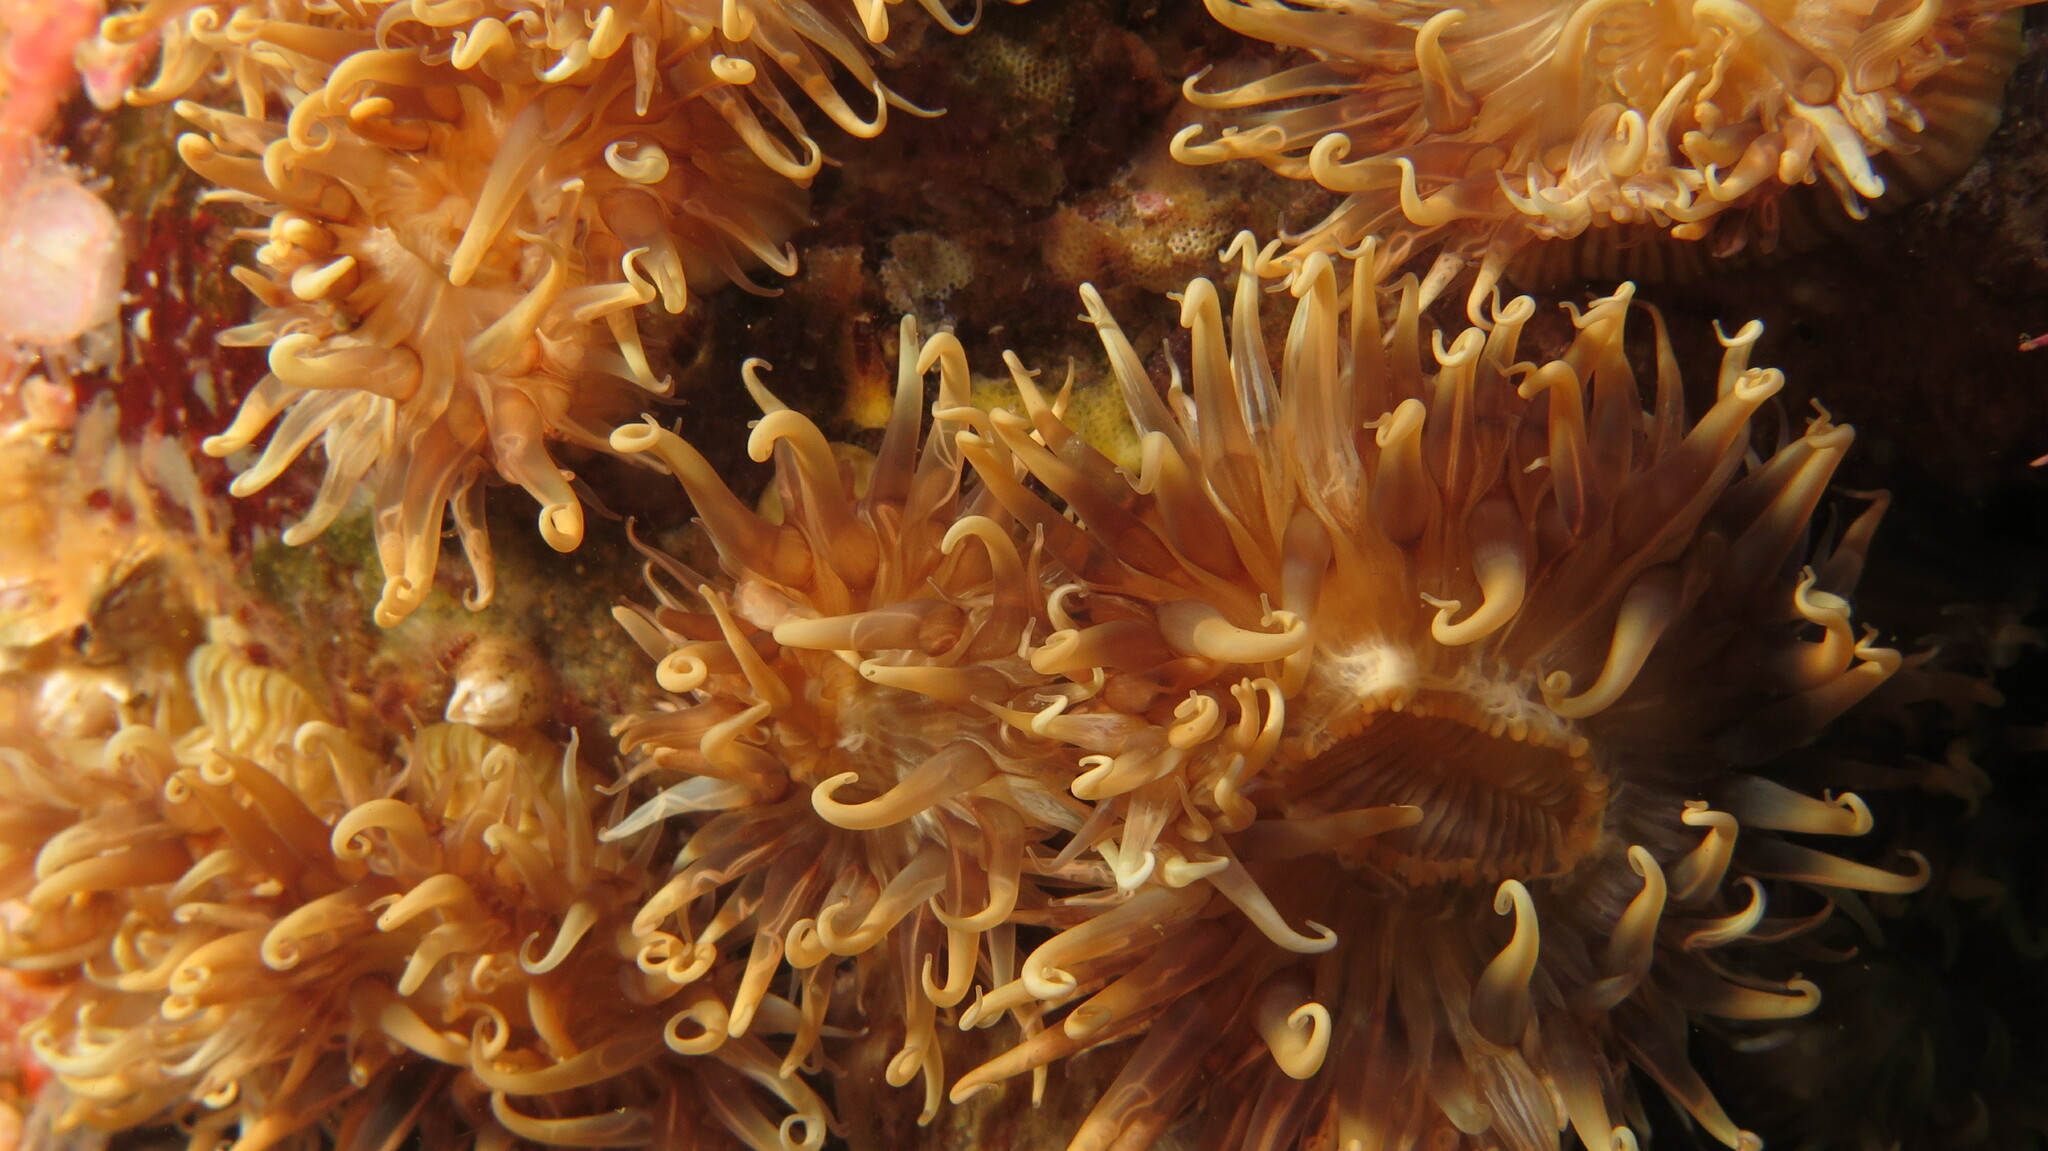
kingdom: Animalia
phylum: Cnidaria
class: Anthozoa
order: Actiniaria
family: Sagartiidae
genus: Anthothoe
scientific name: Anthothoe stimpsonii
